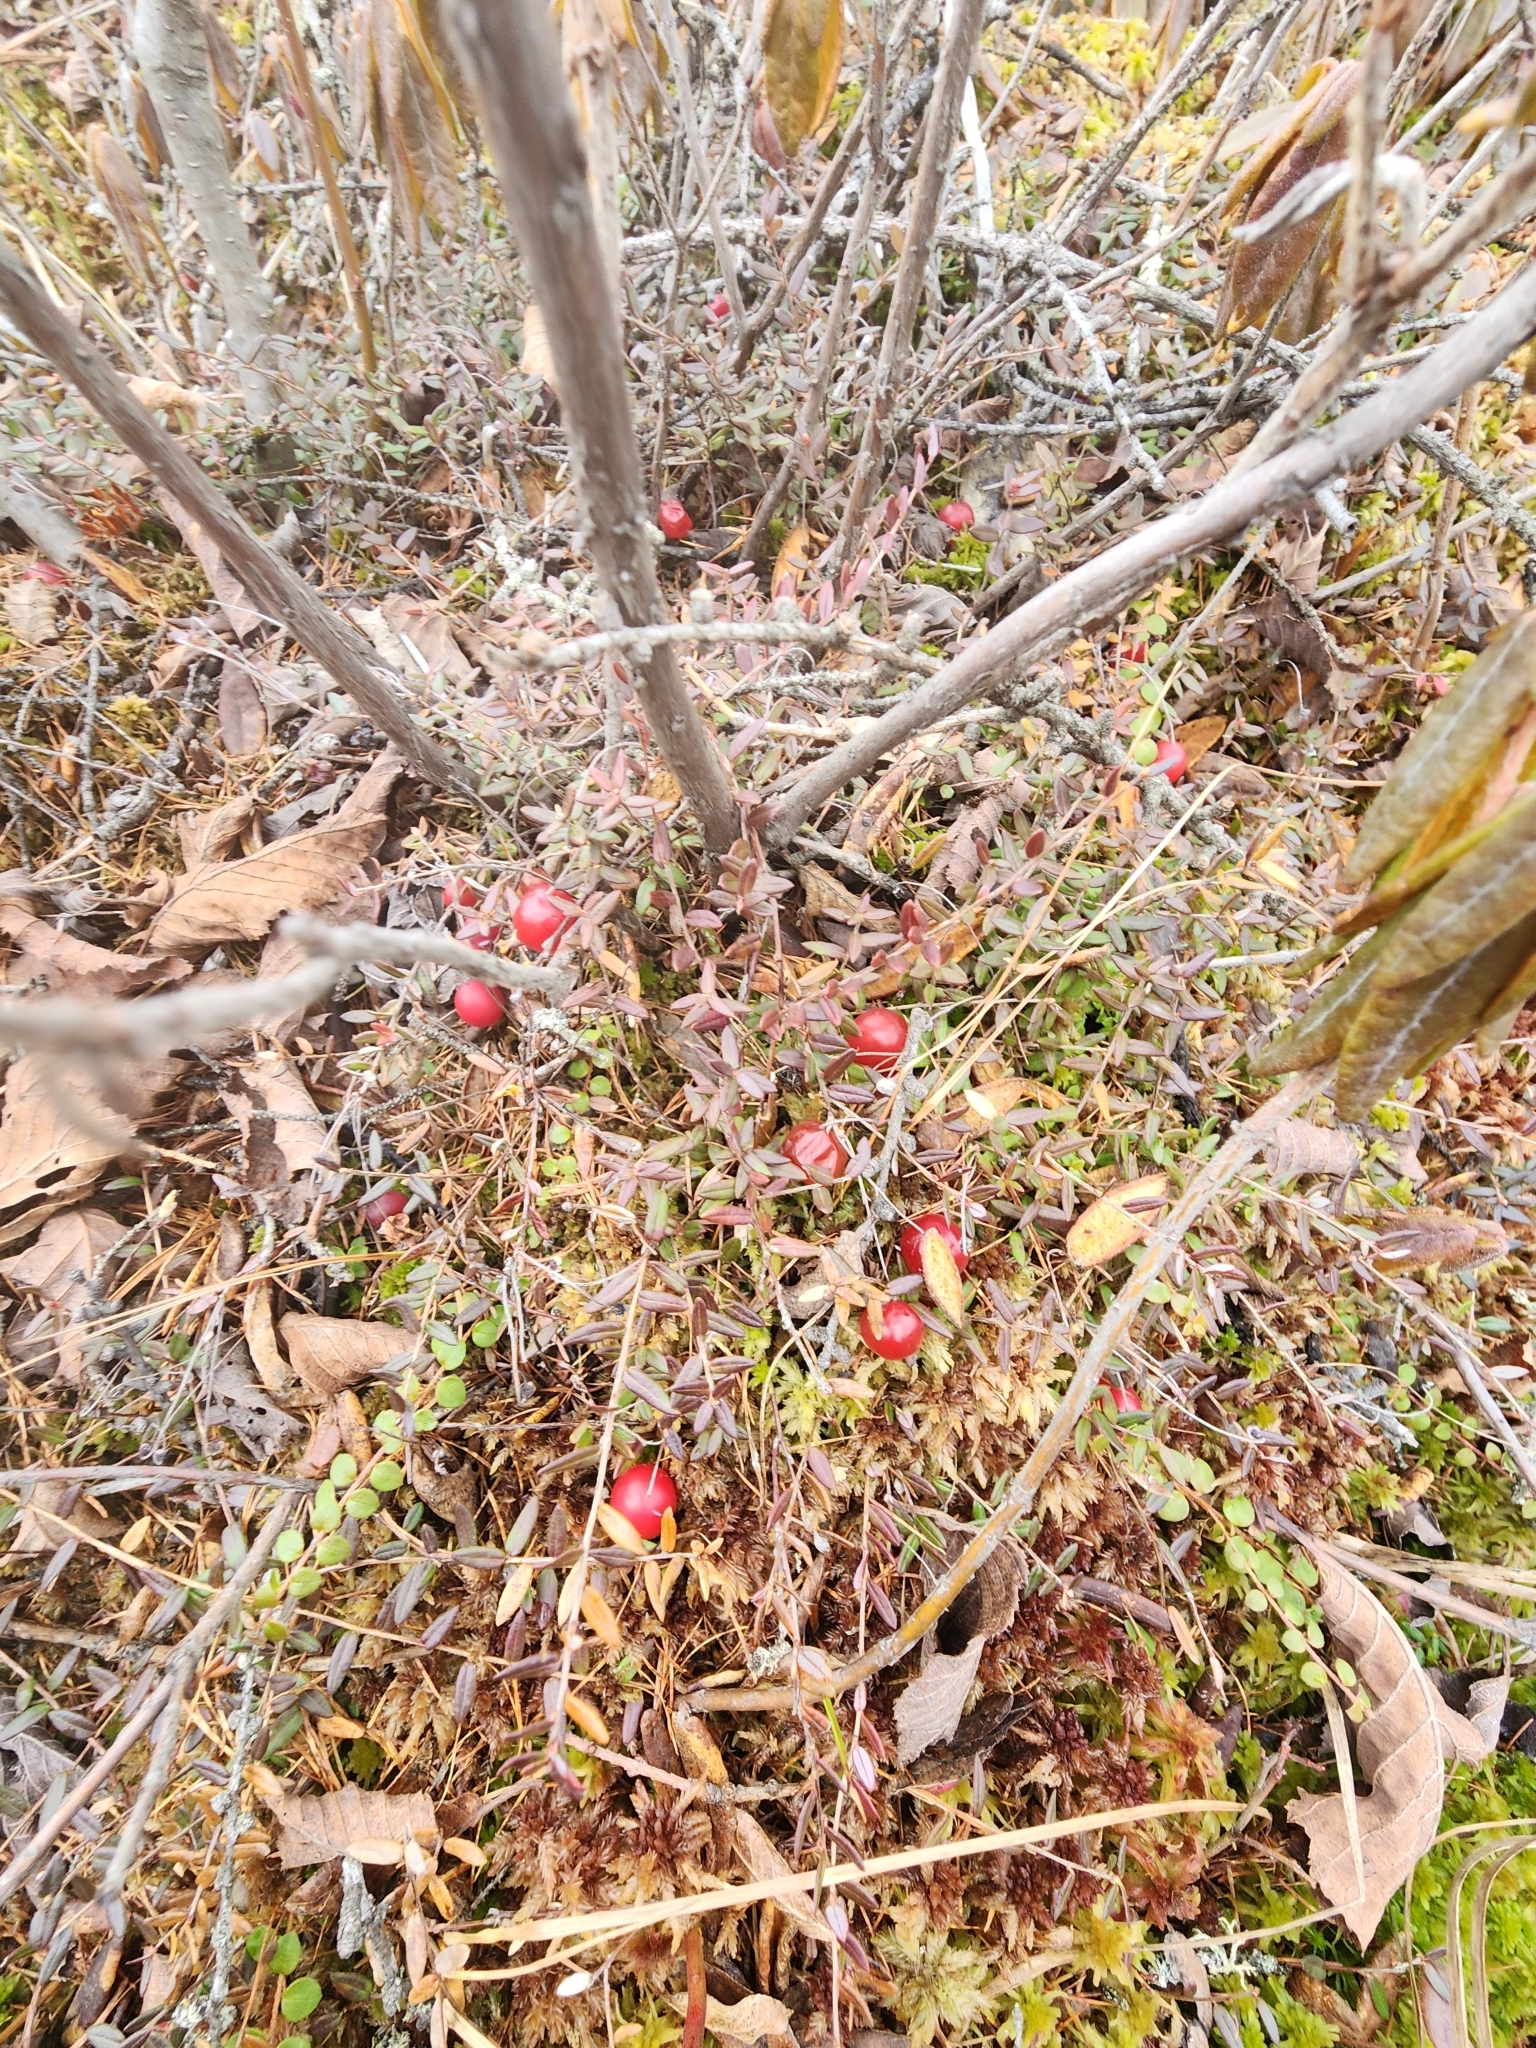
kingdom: Plantae
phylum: Tracheophyta
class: Magnoliopsida
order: Ericales
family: Ericaceae
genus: Vaccinium
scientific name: Vaccinium oxycoccos
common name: Cranberry
